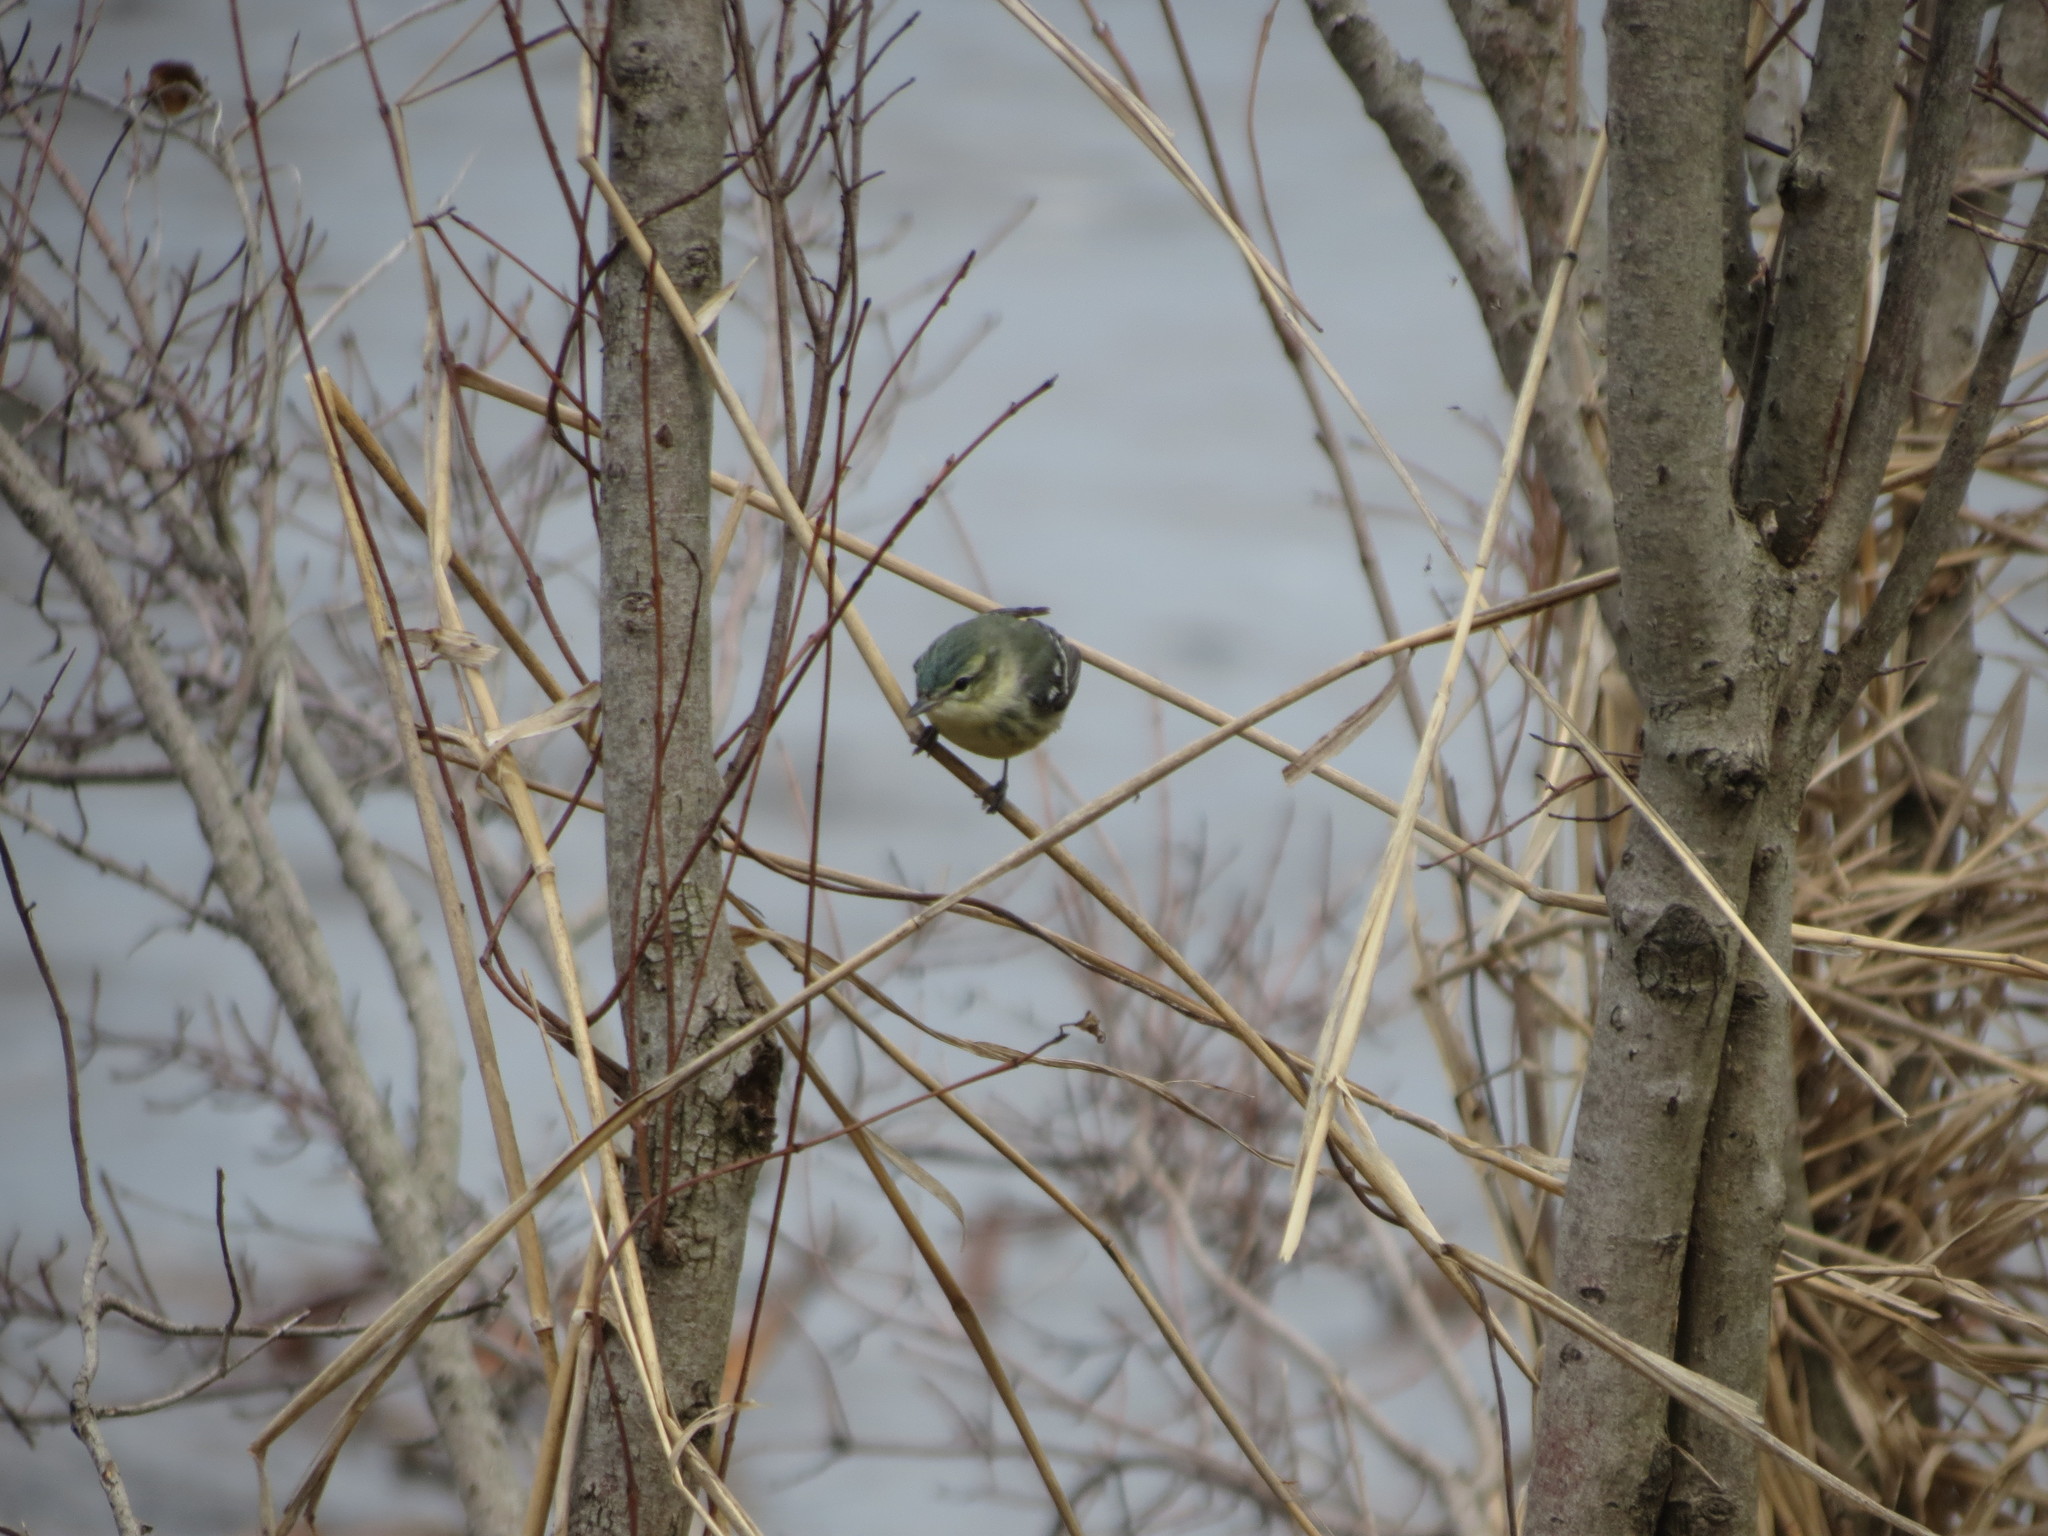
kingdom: Animalia
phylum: Chordata
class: Aves
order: Passeriformes
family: Parulidae
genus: Setophaga
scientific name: Setophaga cerulea
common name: Cerulean warbler
